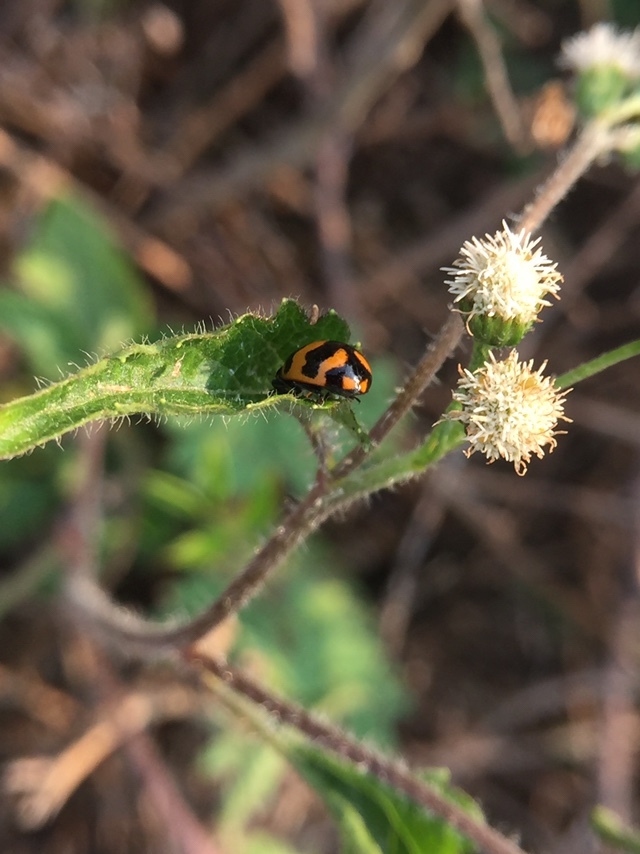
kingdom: Animalia
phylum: Arthropoda
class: Insecta
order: Coleoptera
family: Coccinellidae
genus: Coccinella
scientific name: Coccinella transversalis
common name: Transverse lady beetle
